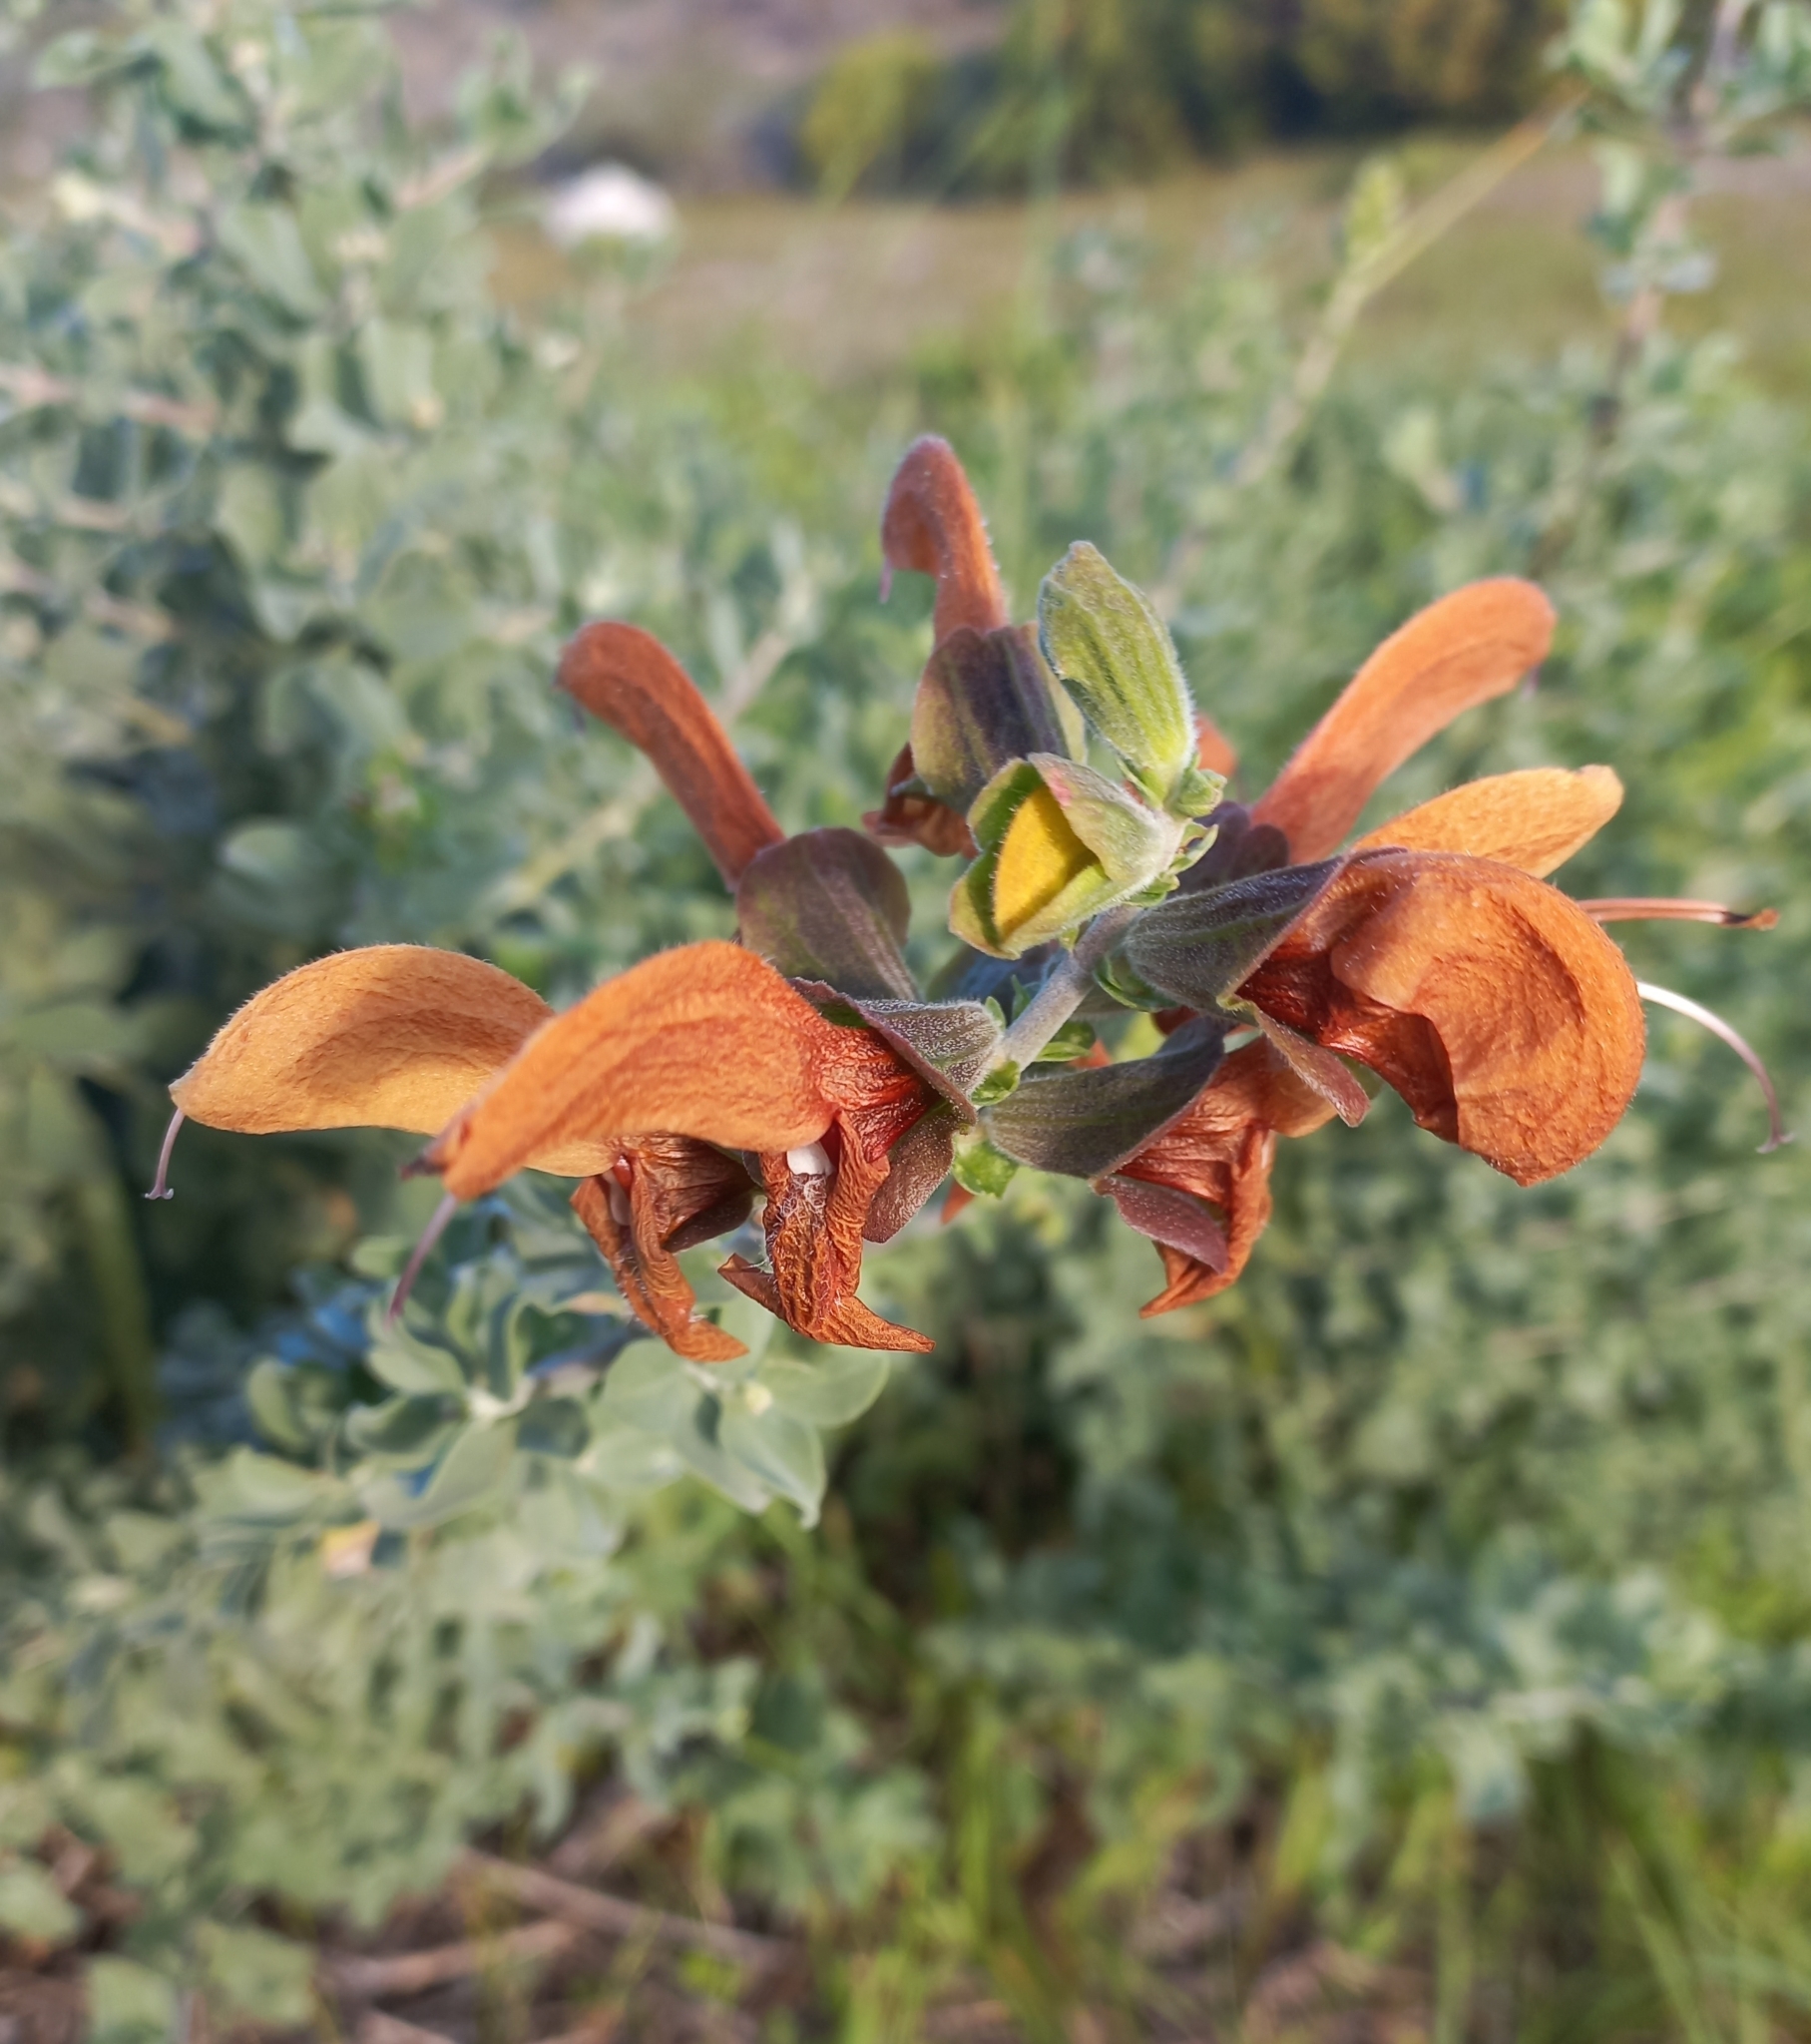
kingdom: Plantae
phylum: Tracheophyta
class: Magnoliopsida
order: Lamiales
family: Lamiaceae
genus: Salvia
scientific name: Salvia aurea
